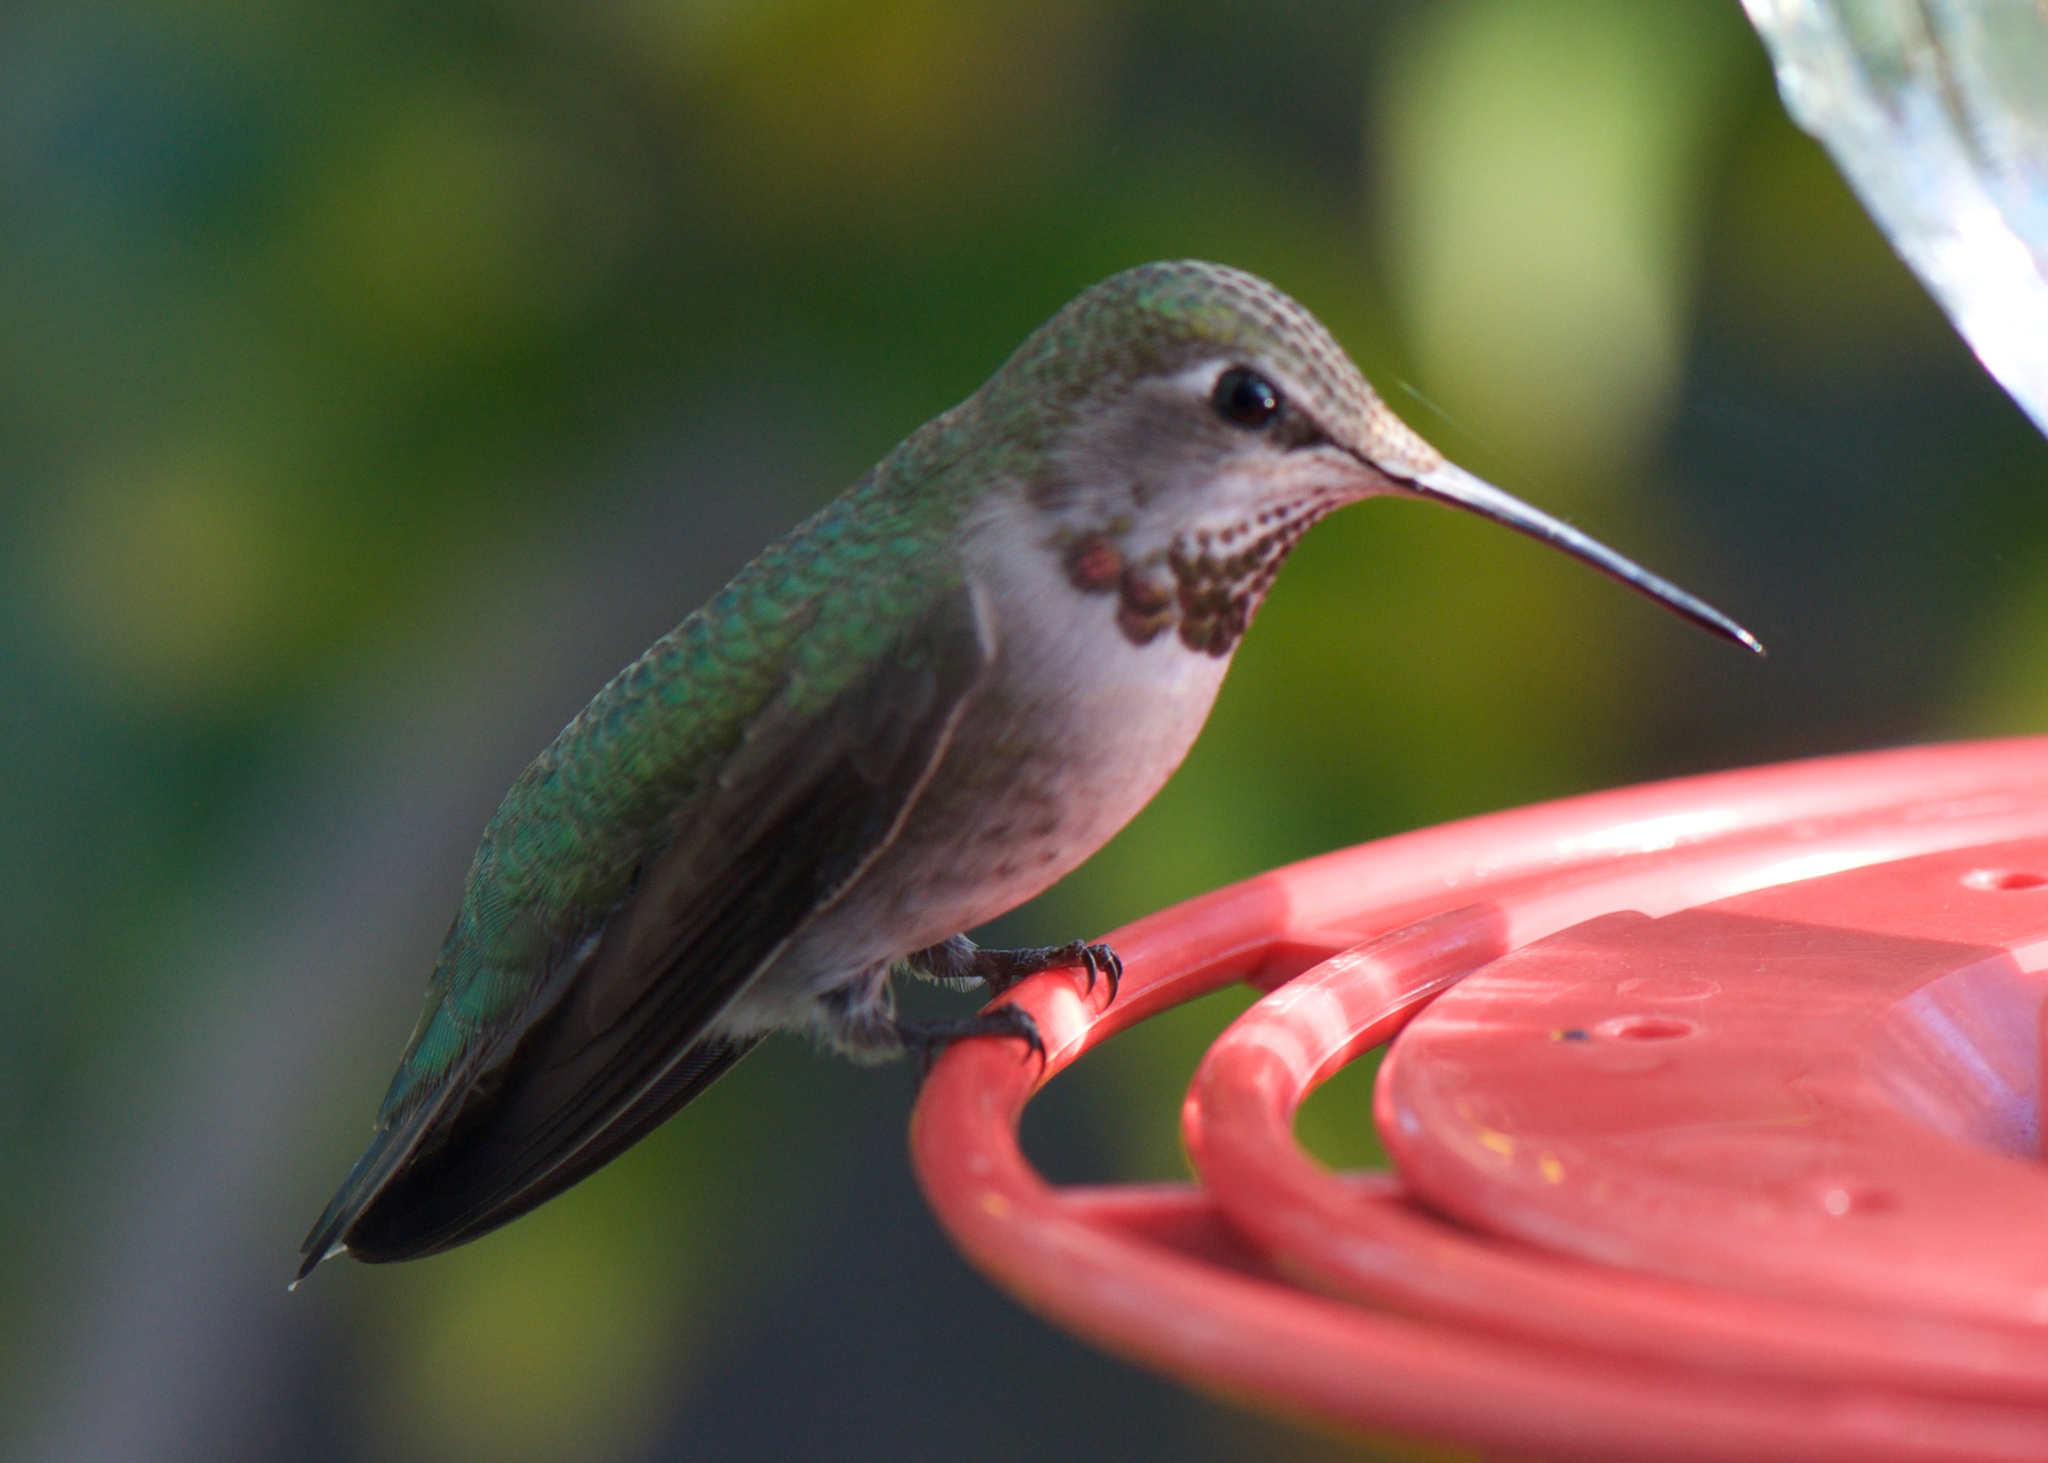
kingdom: Animalia
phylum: Chordata
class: Aves
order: Apodiformes
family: Trochilidae
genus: Calypte
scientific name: Calypte anna
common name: Anna's hummingbird
